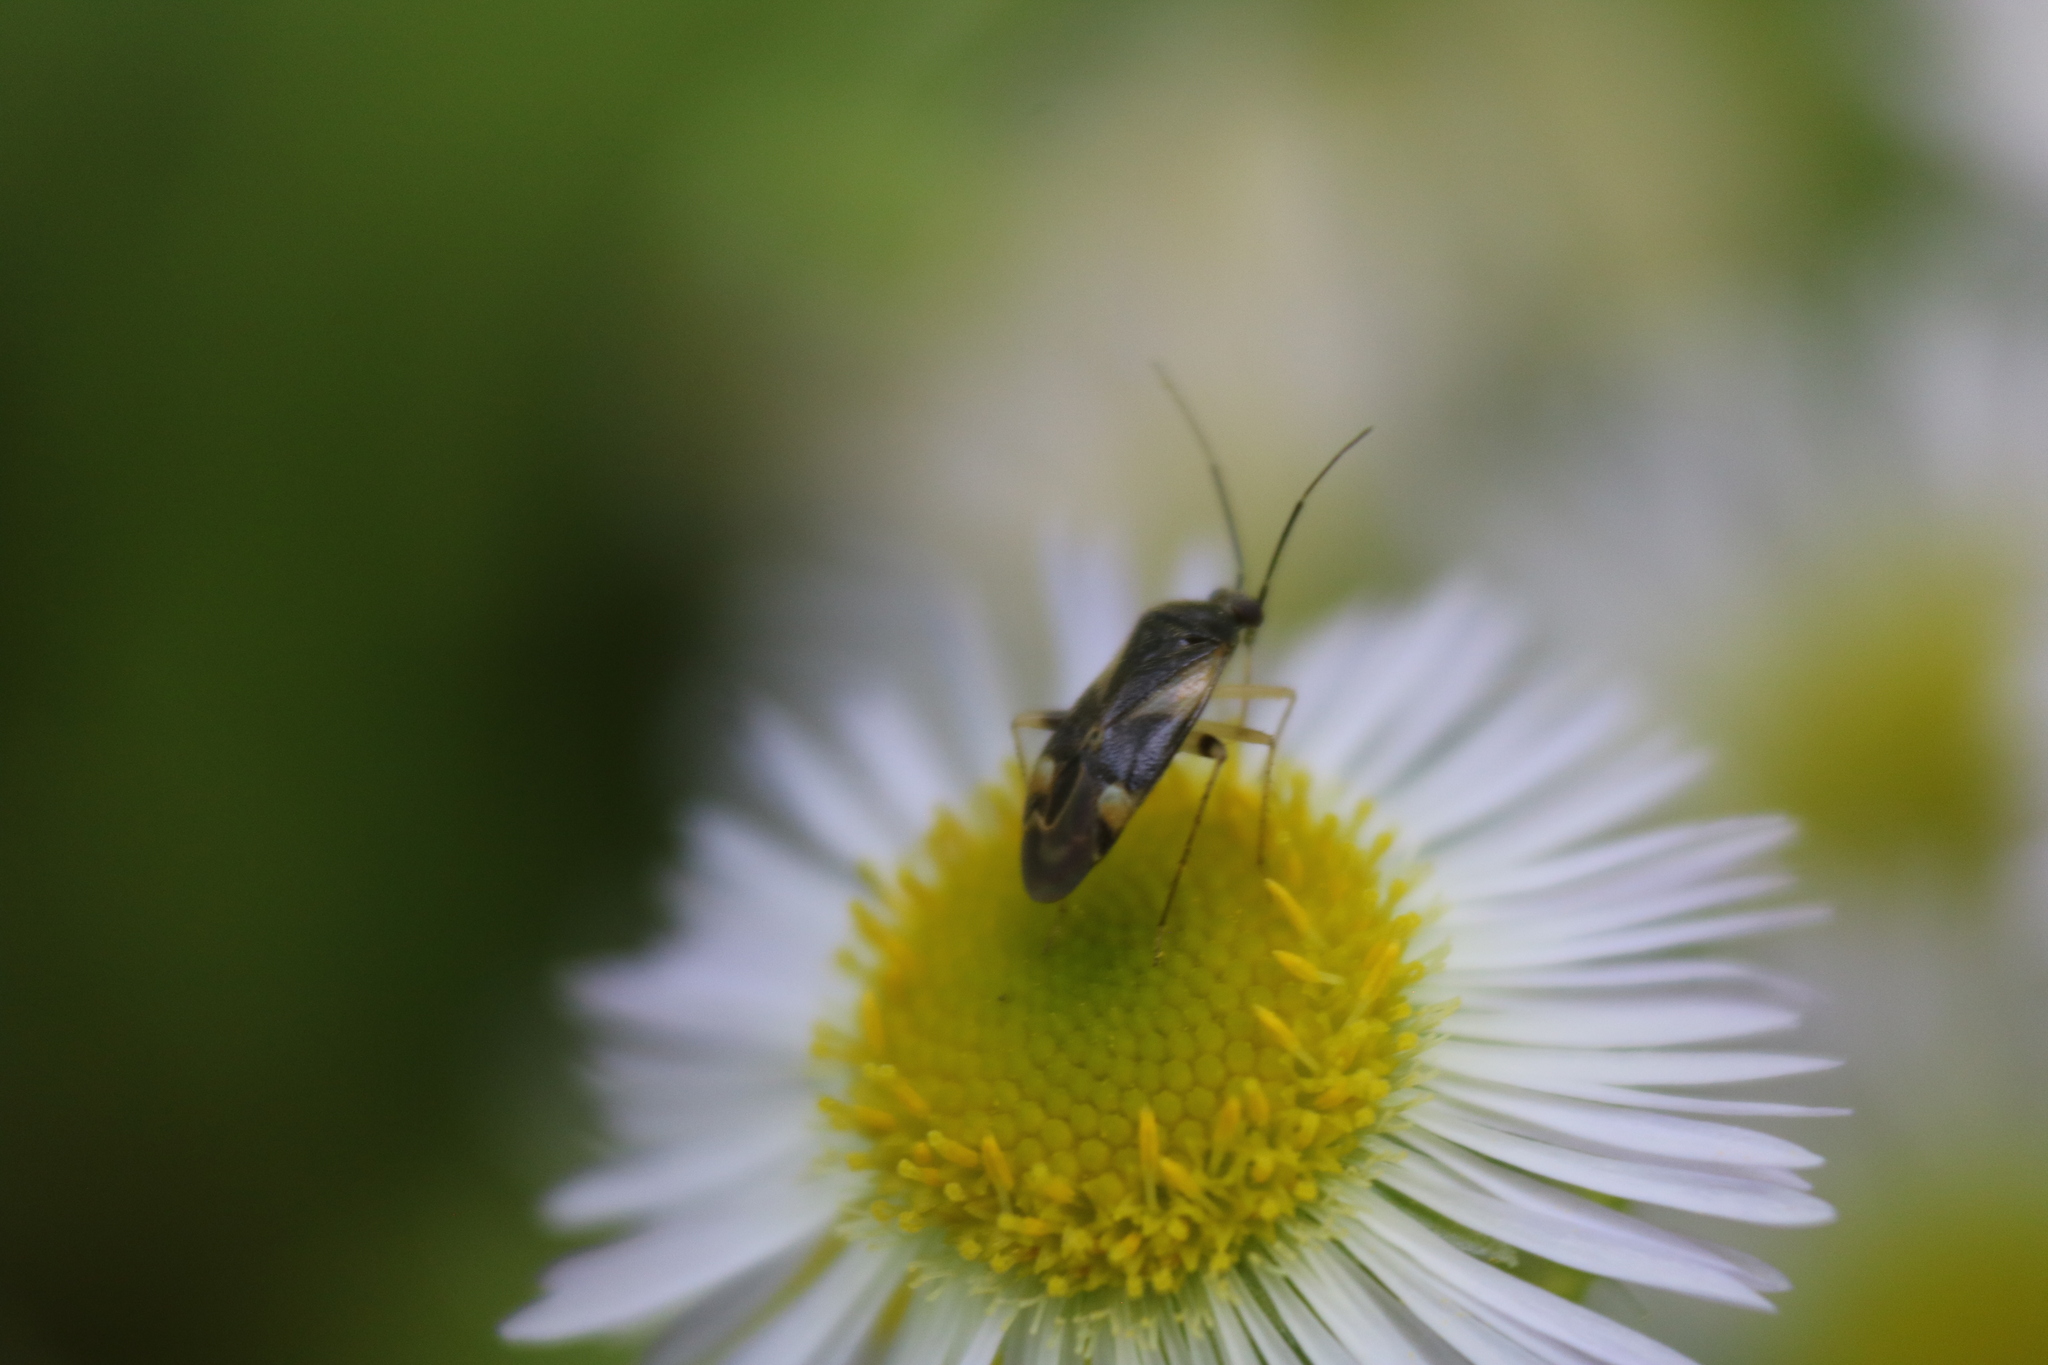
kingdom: Animalia
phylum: Arthropoda
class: Insecta
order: Hemiptera
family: Miridae
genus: Plagiognathus
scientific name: Plagiognathus obscurus
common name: Obscure plant bug
